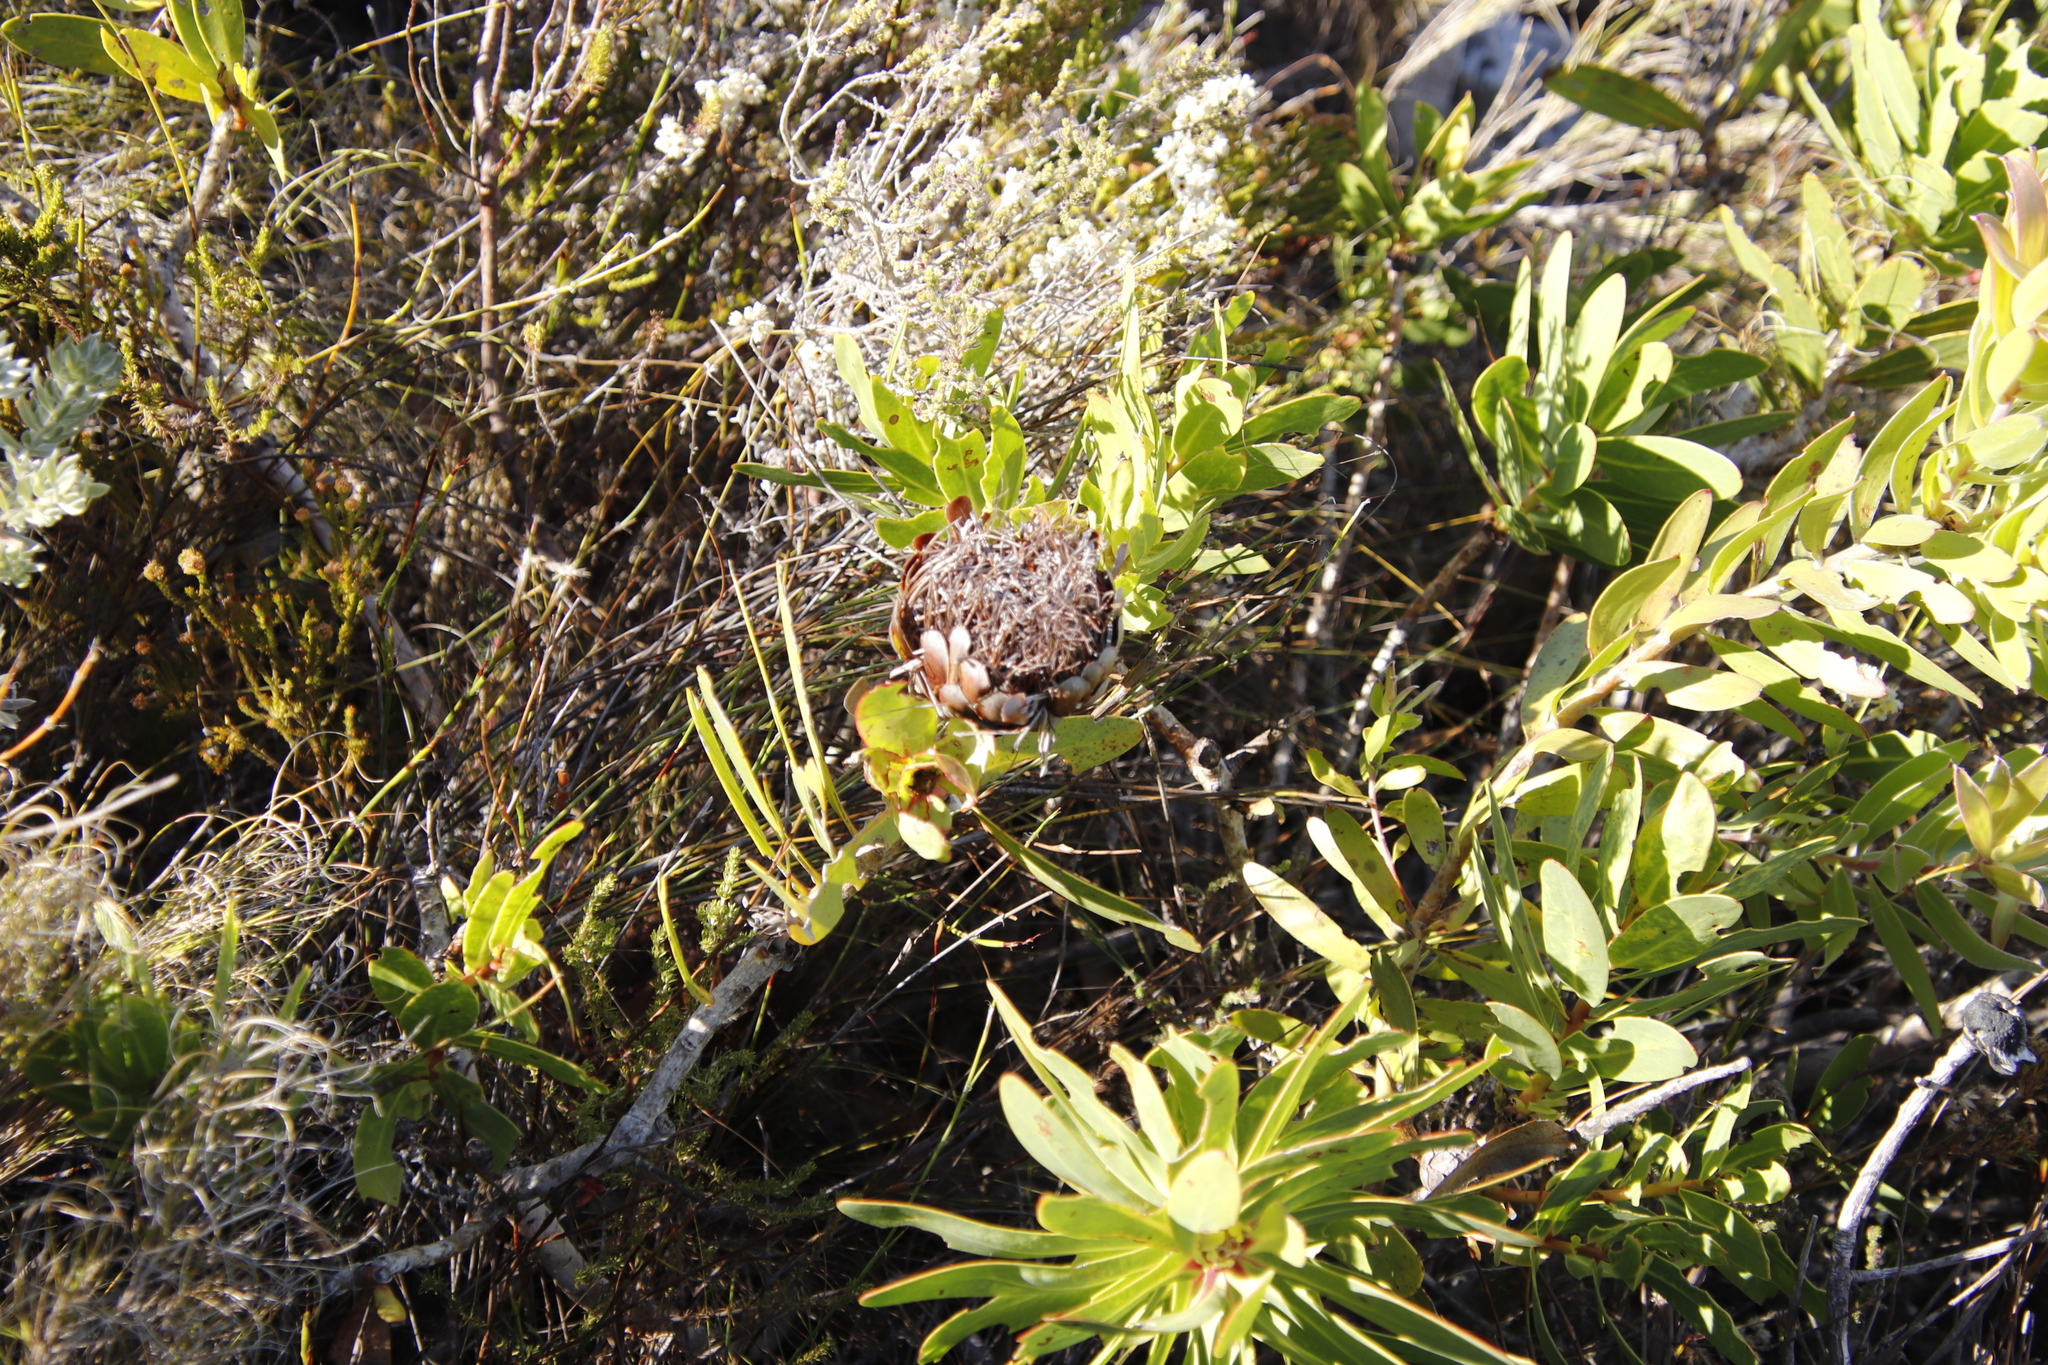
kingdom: Plantae
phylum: Tracheophyta
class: Magnoliopsida
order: Proteales
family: Proteaceae
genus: Protea
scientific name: Protea nitida
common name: Tree protea
